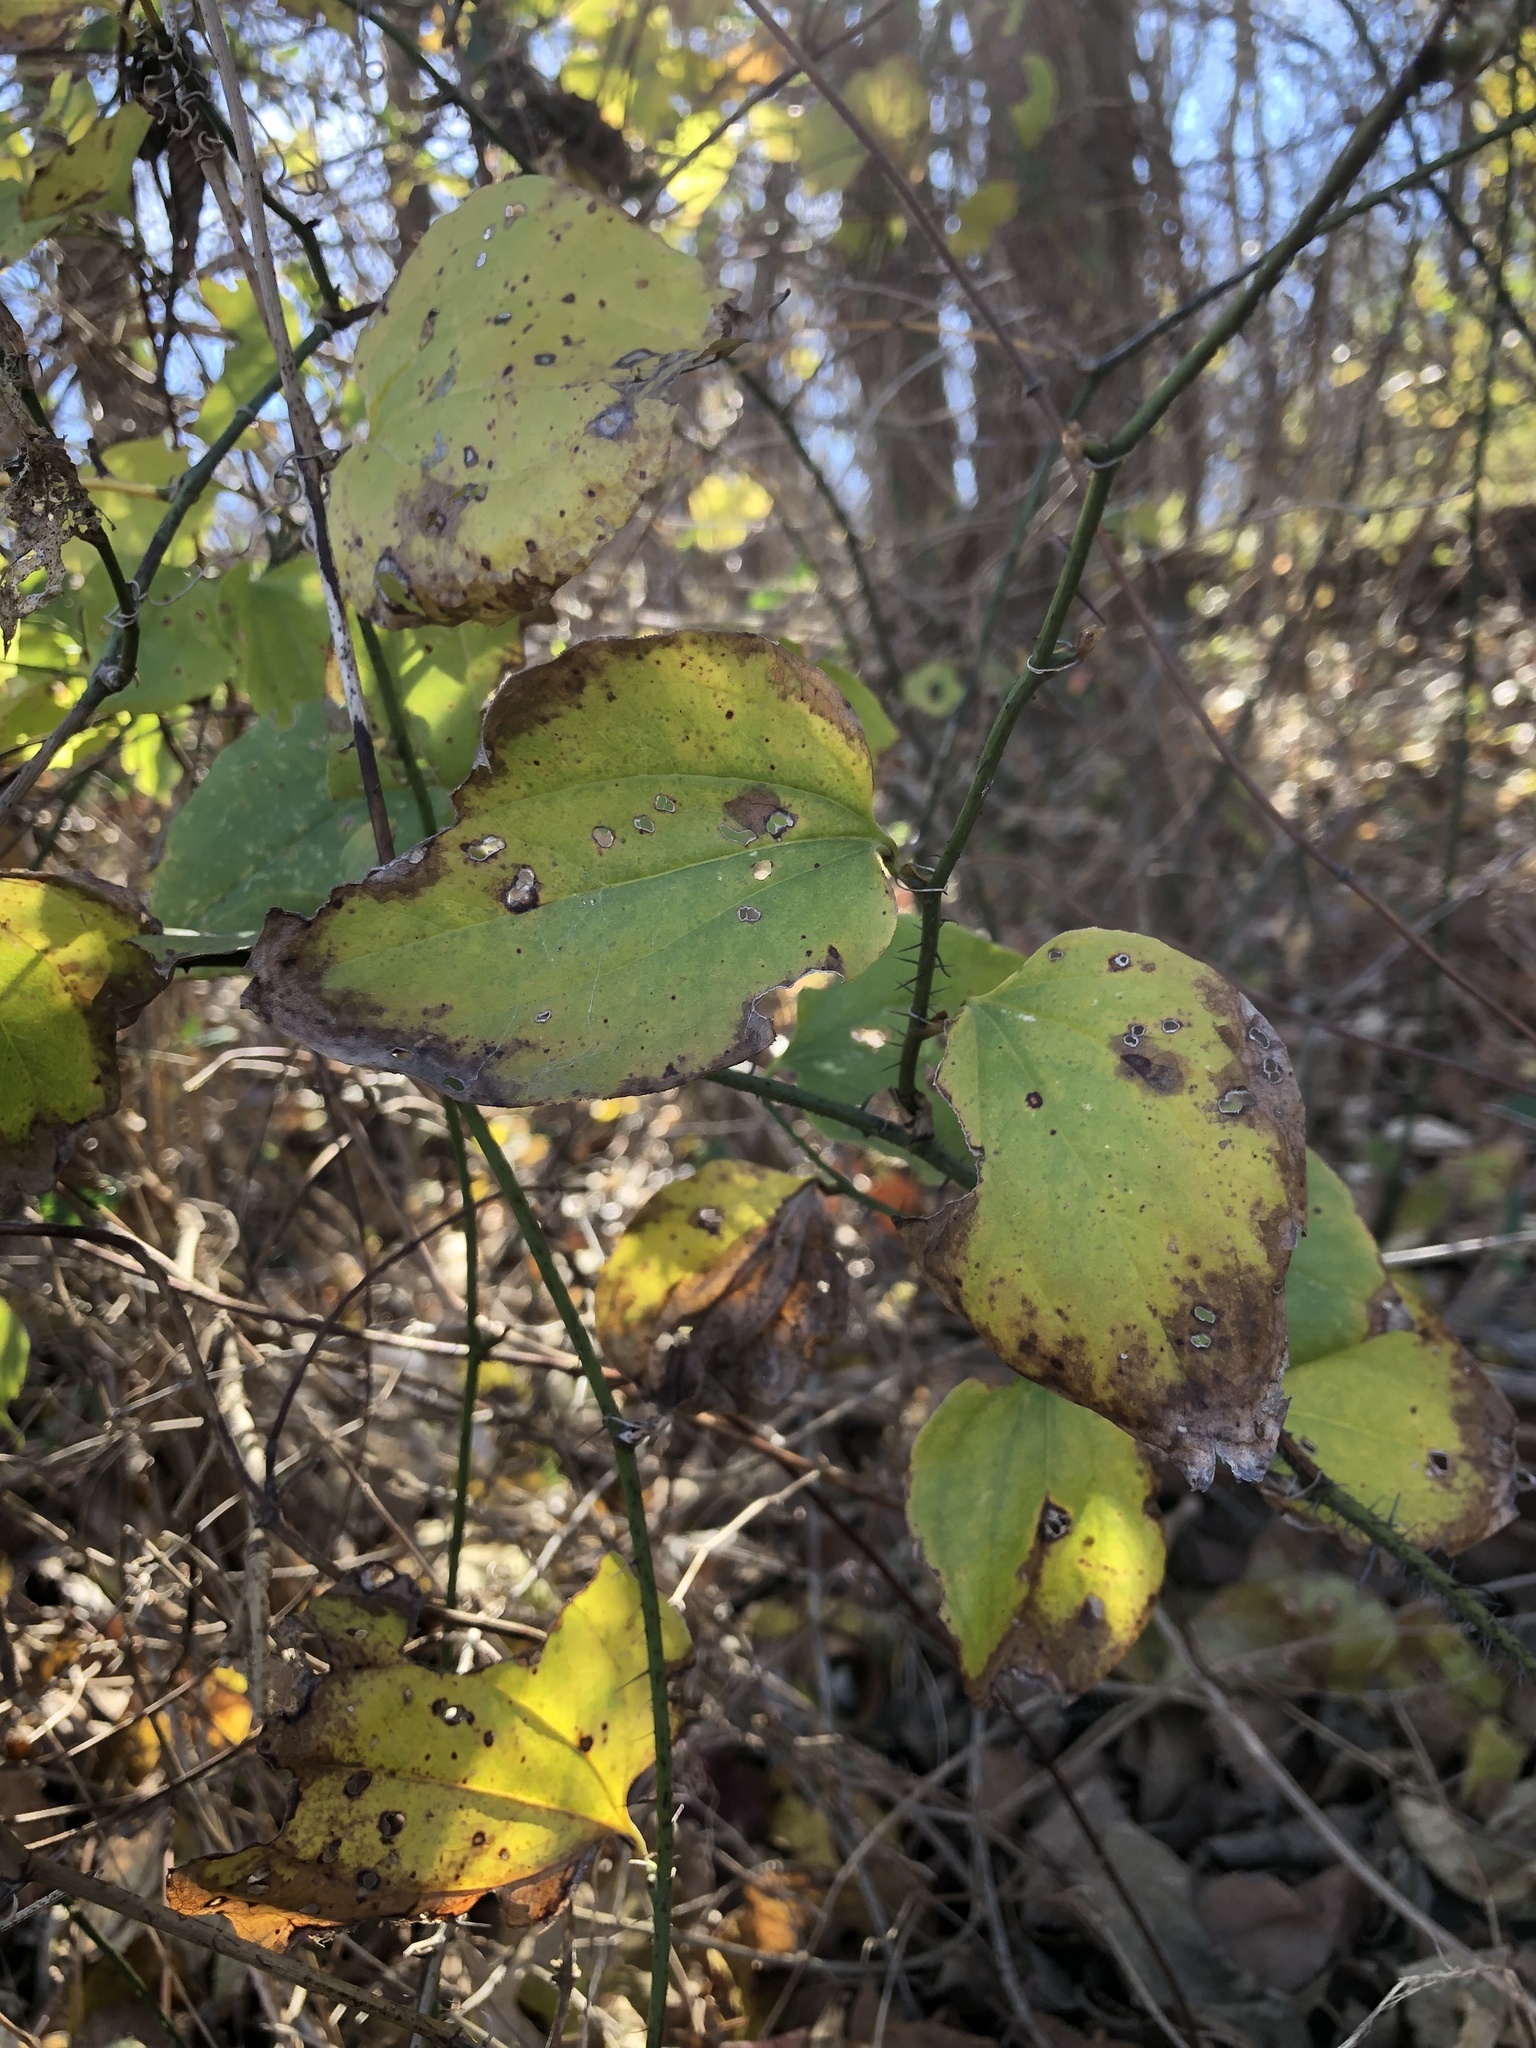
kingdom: Plantae
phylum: Tracheophyta
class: Liliopsida
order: Liliales
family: Smilacaceae
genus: Smilax
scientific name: Smilax tamnoides
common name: Hellfetter
